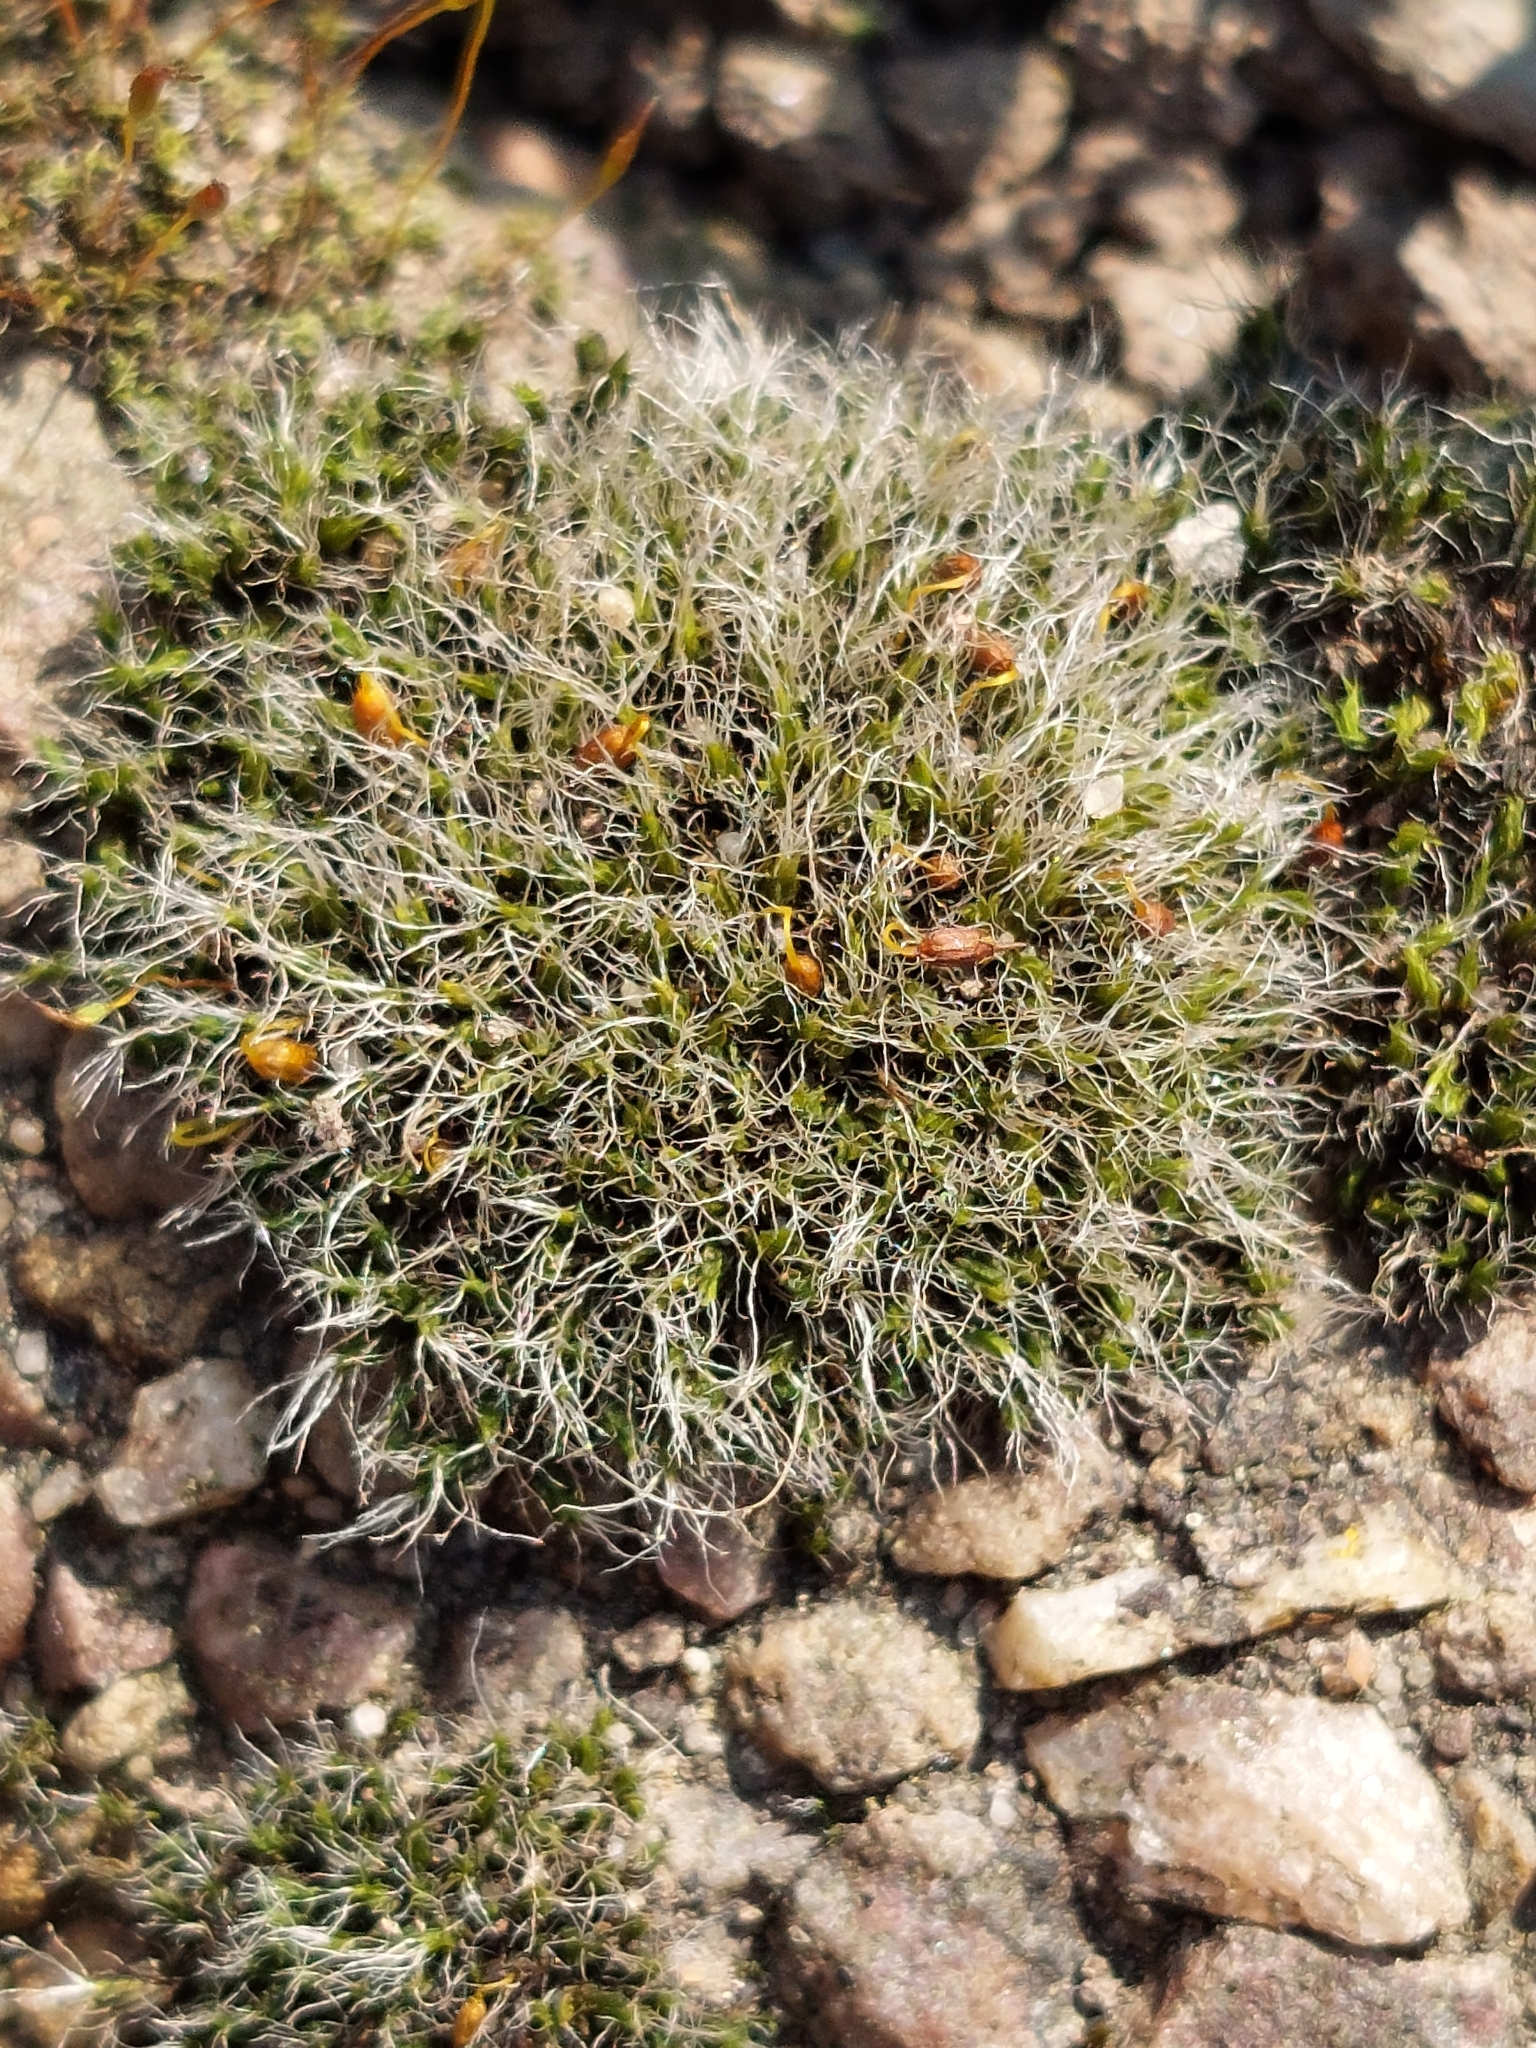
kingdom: Plantae
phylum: Bryophyta
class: Bryopsida
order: Grimmiales
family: Grimmiaceae
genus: Grimmia
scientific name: Grimmia pulvinata
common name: Grey-cushioned grimmia
